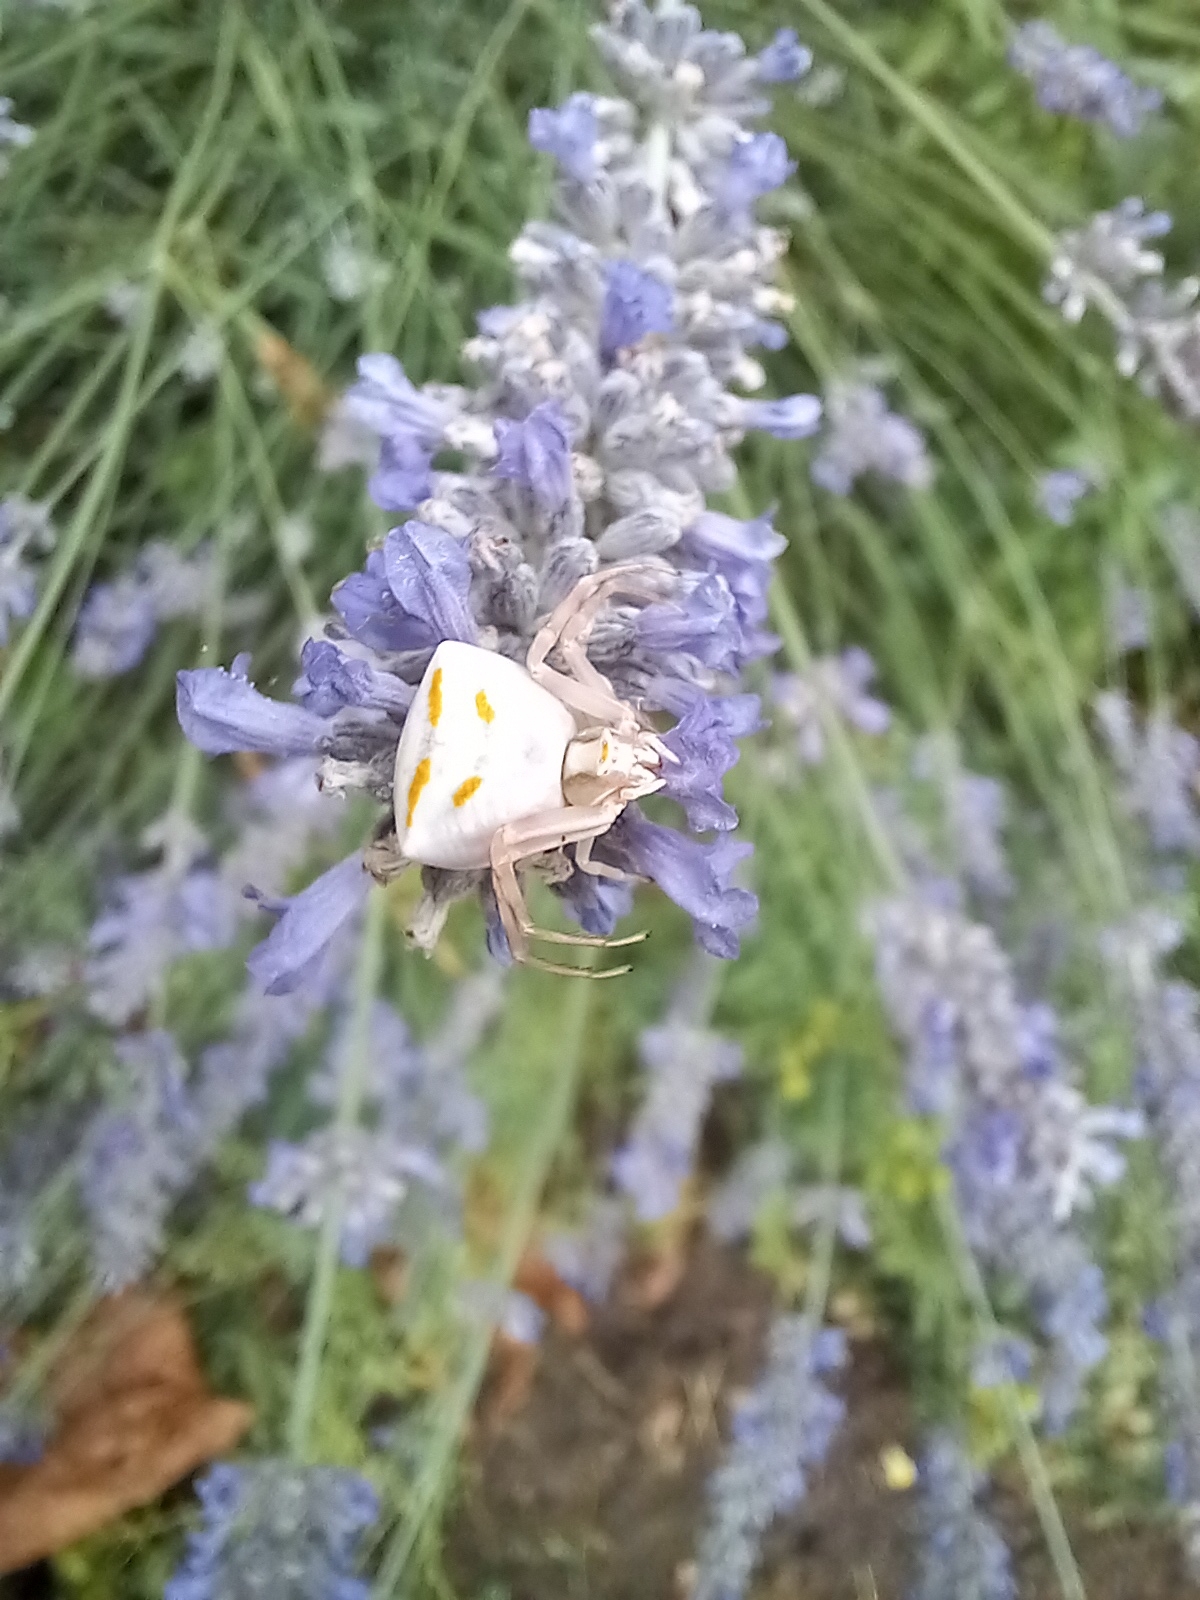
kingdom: Animalia
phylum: Arthropoda
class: Arachnida
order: Araneae
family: Thomisidae
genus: Thomisus
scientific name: Thomisus onustus
